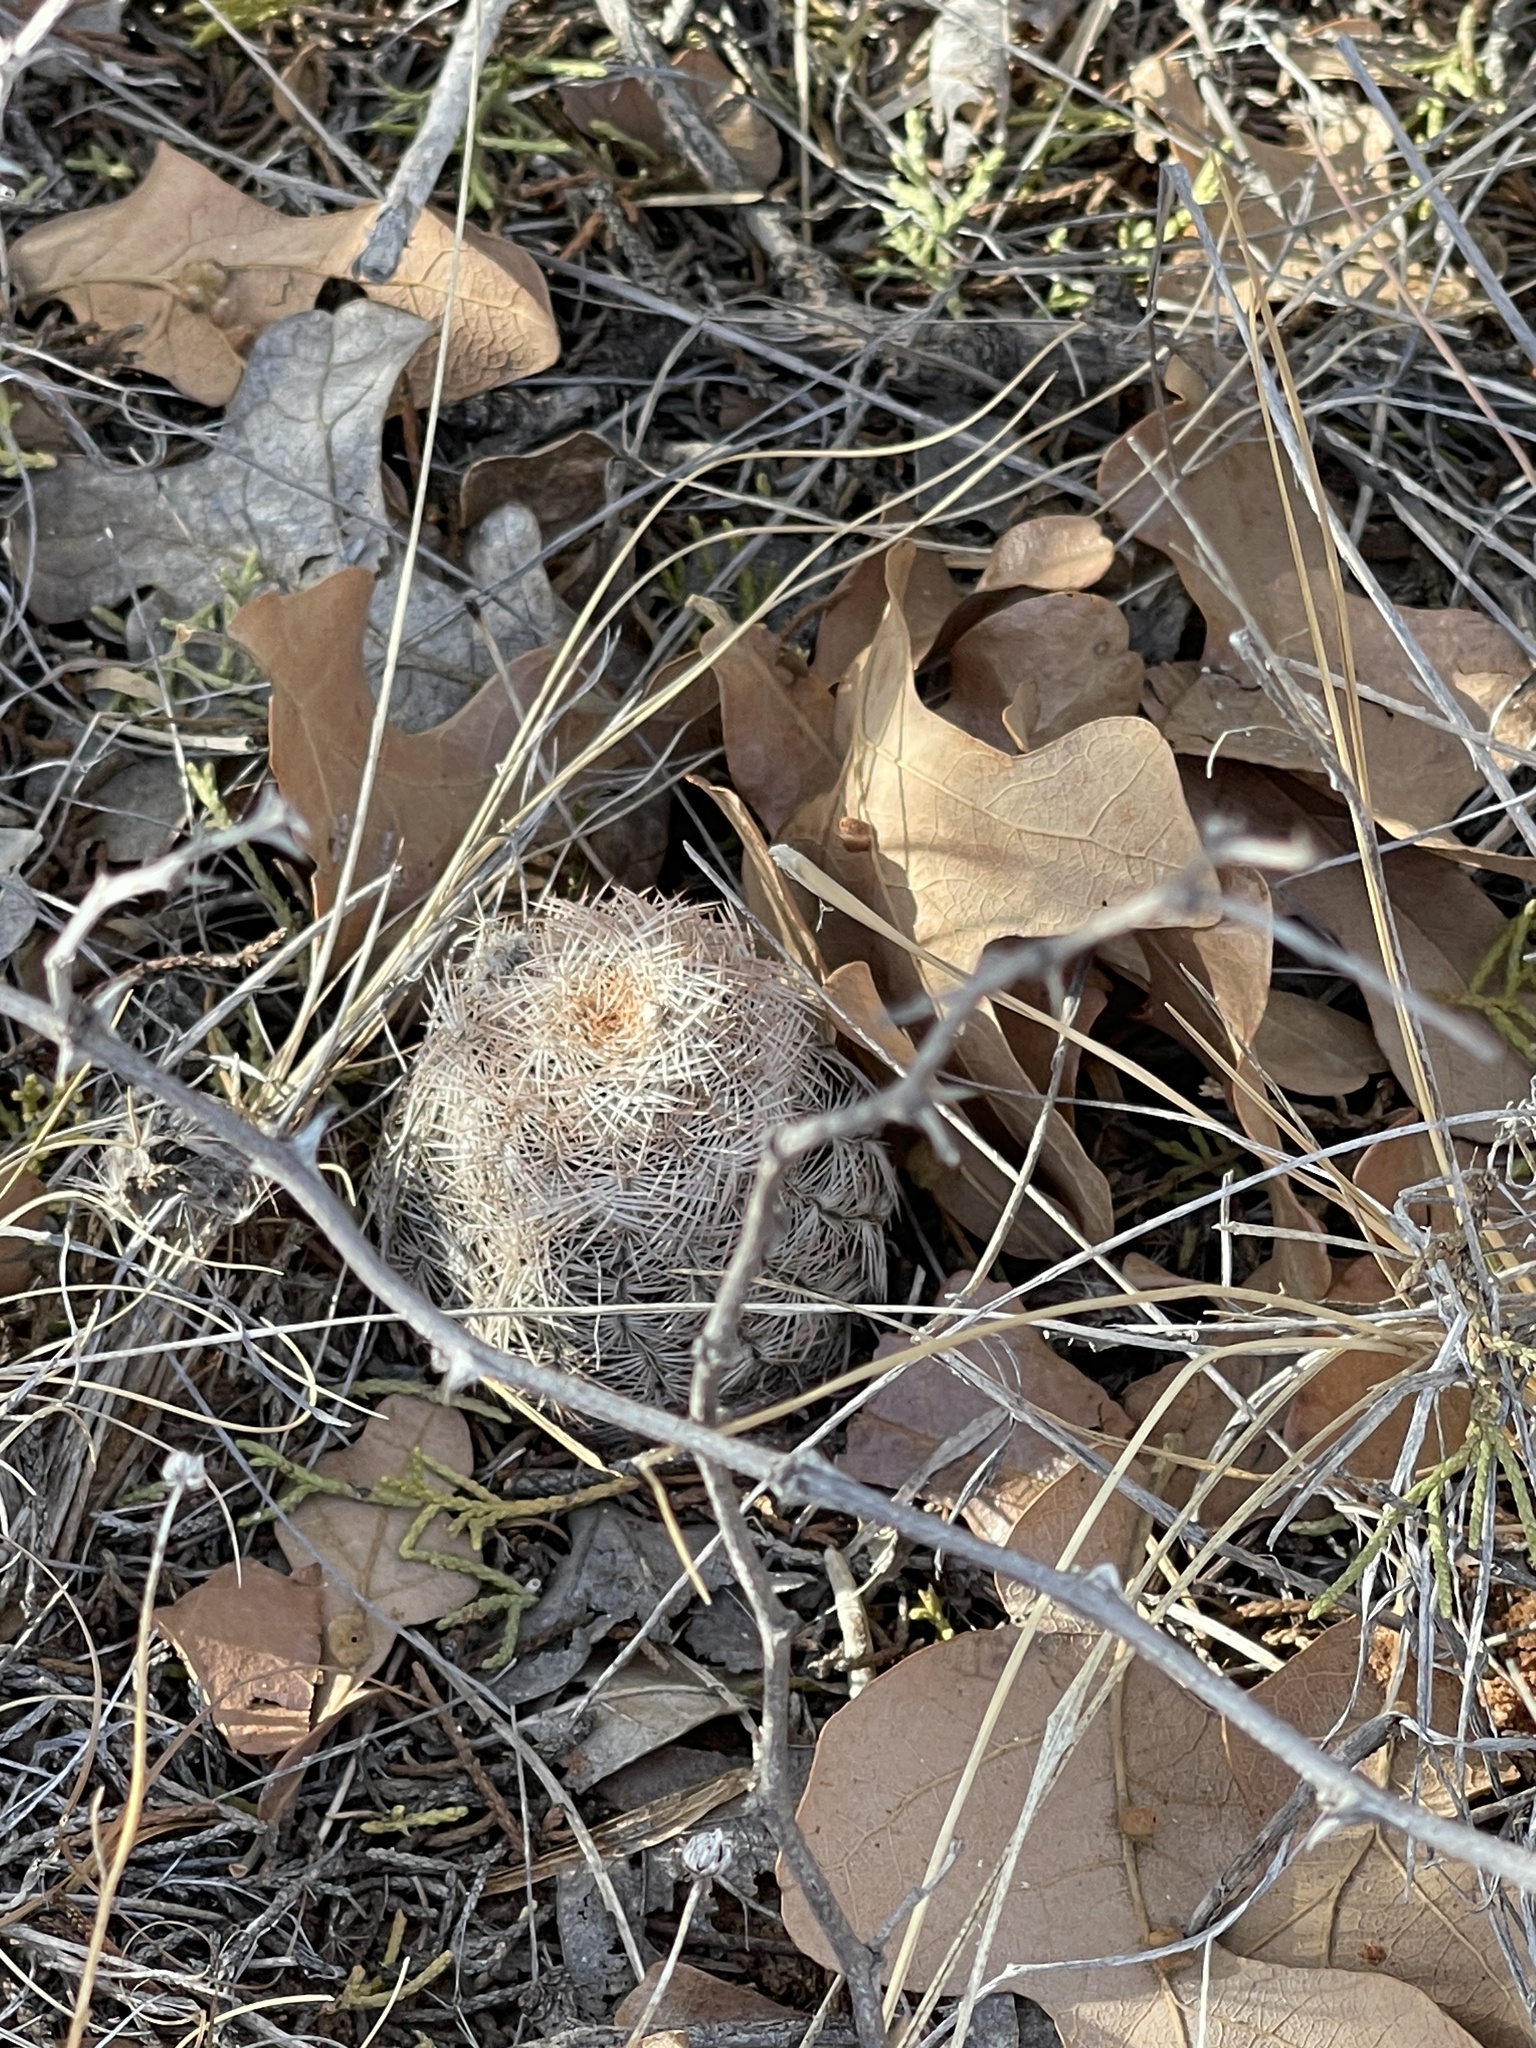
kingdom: Plantae
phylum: Tracheophyta
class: Magnoliopsida
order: Caryophyllales
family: Cactaceae
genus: Echinocereus
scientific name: Echinocereus reichenbachii
